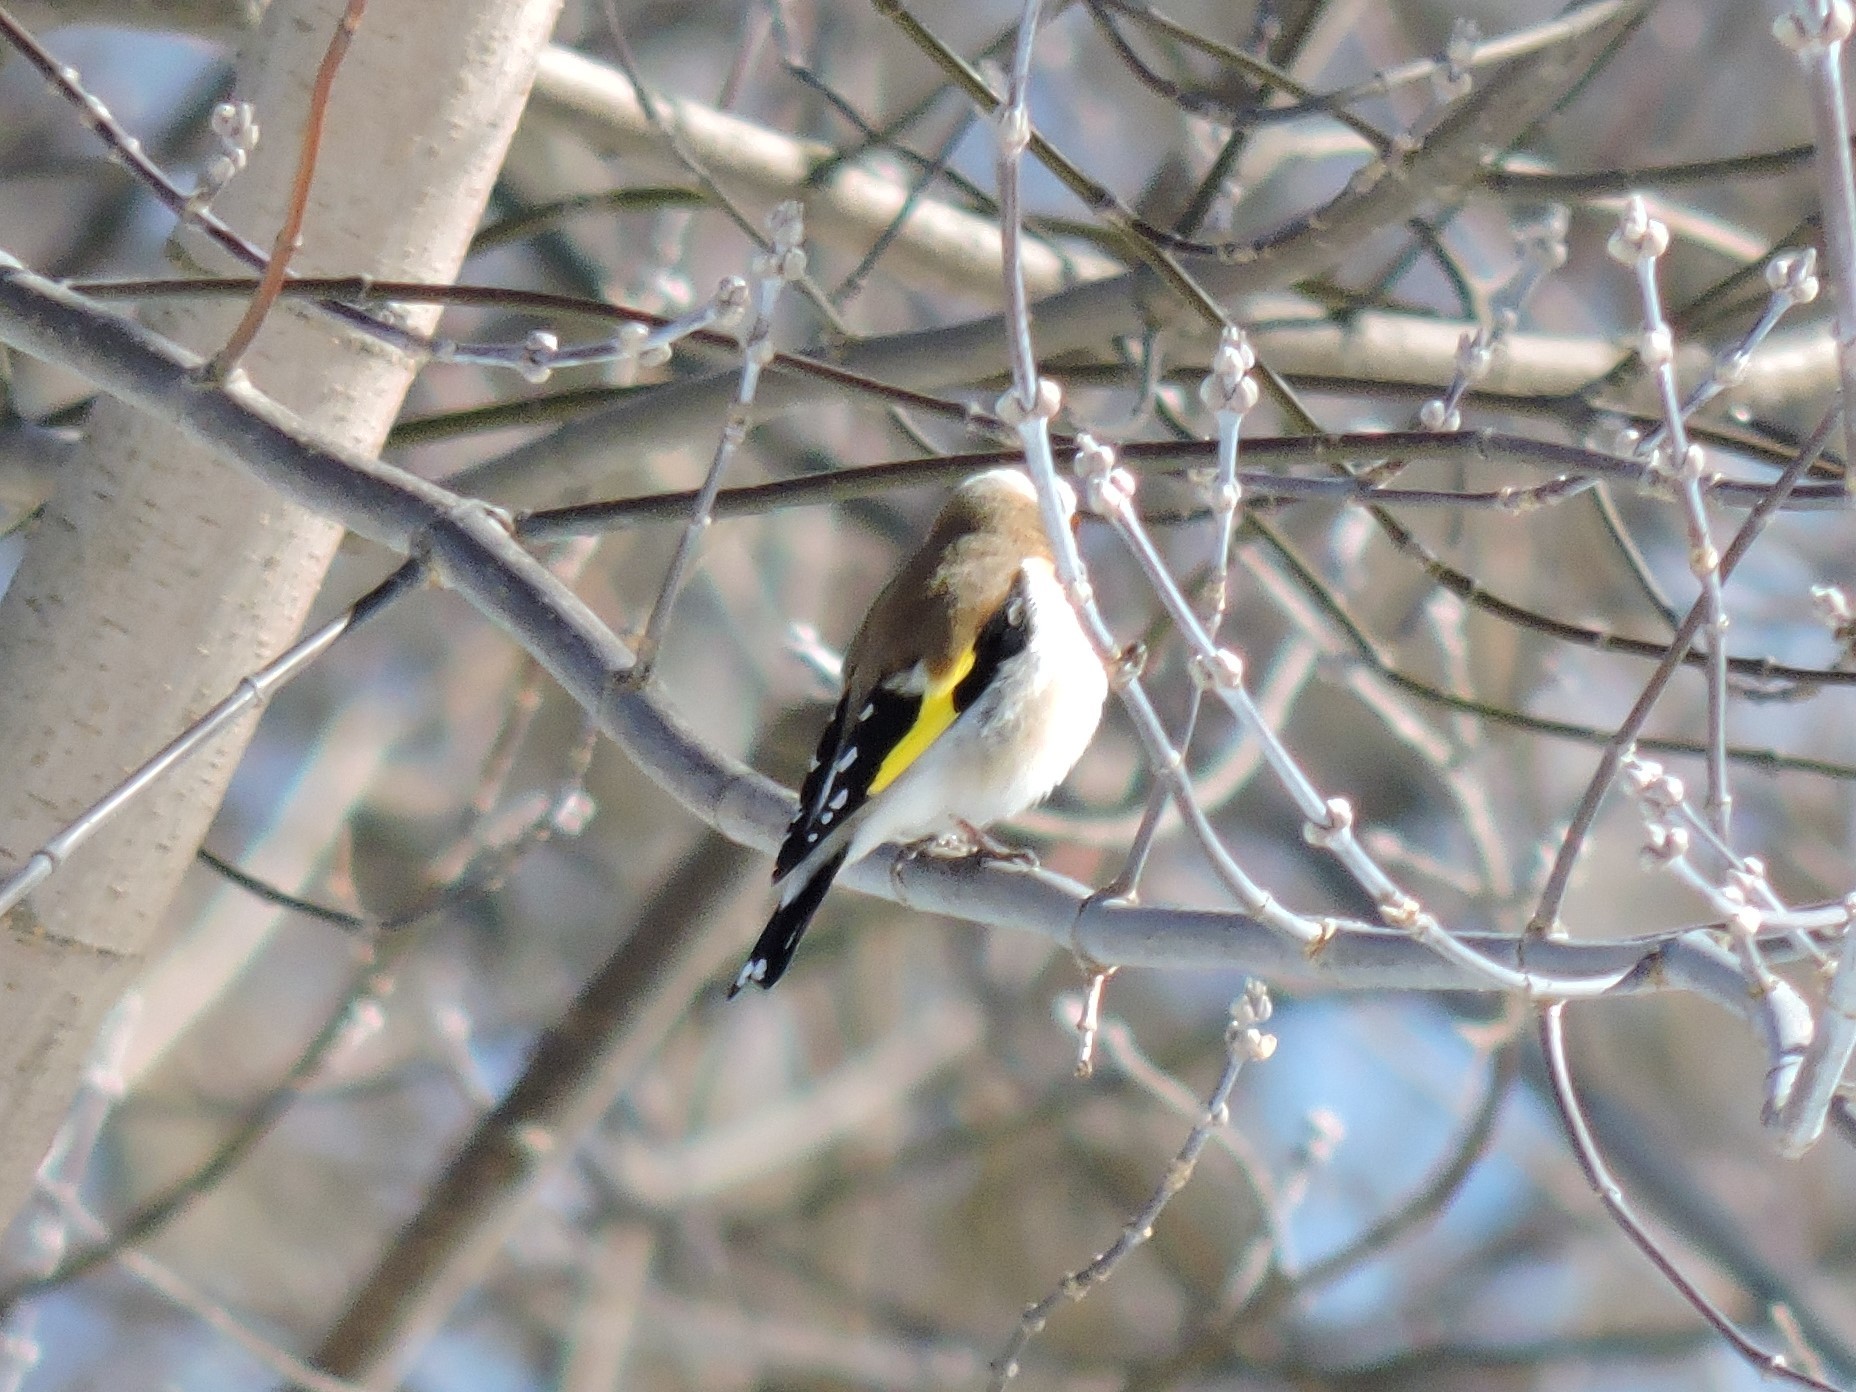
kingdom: Animalia
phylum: Chordata
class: Aves
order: Passeriformes
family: Fringillidae
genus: Carduelis
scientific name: Carduelis carduelis
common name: European goldfinch
